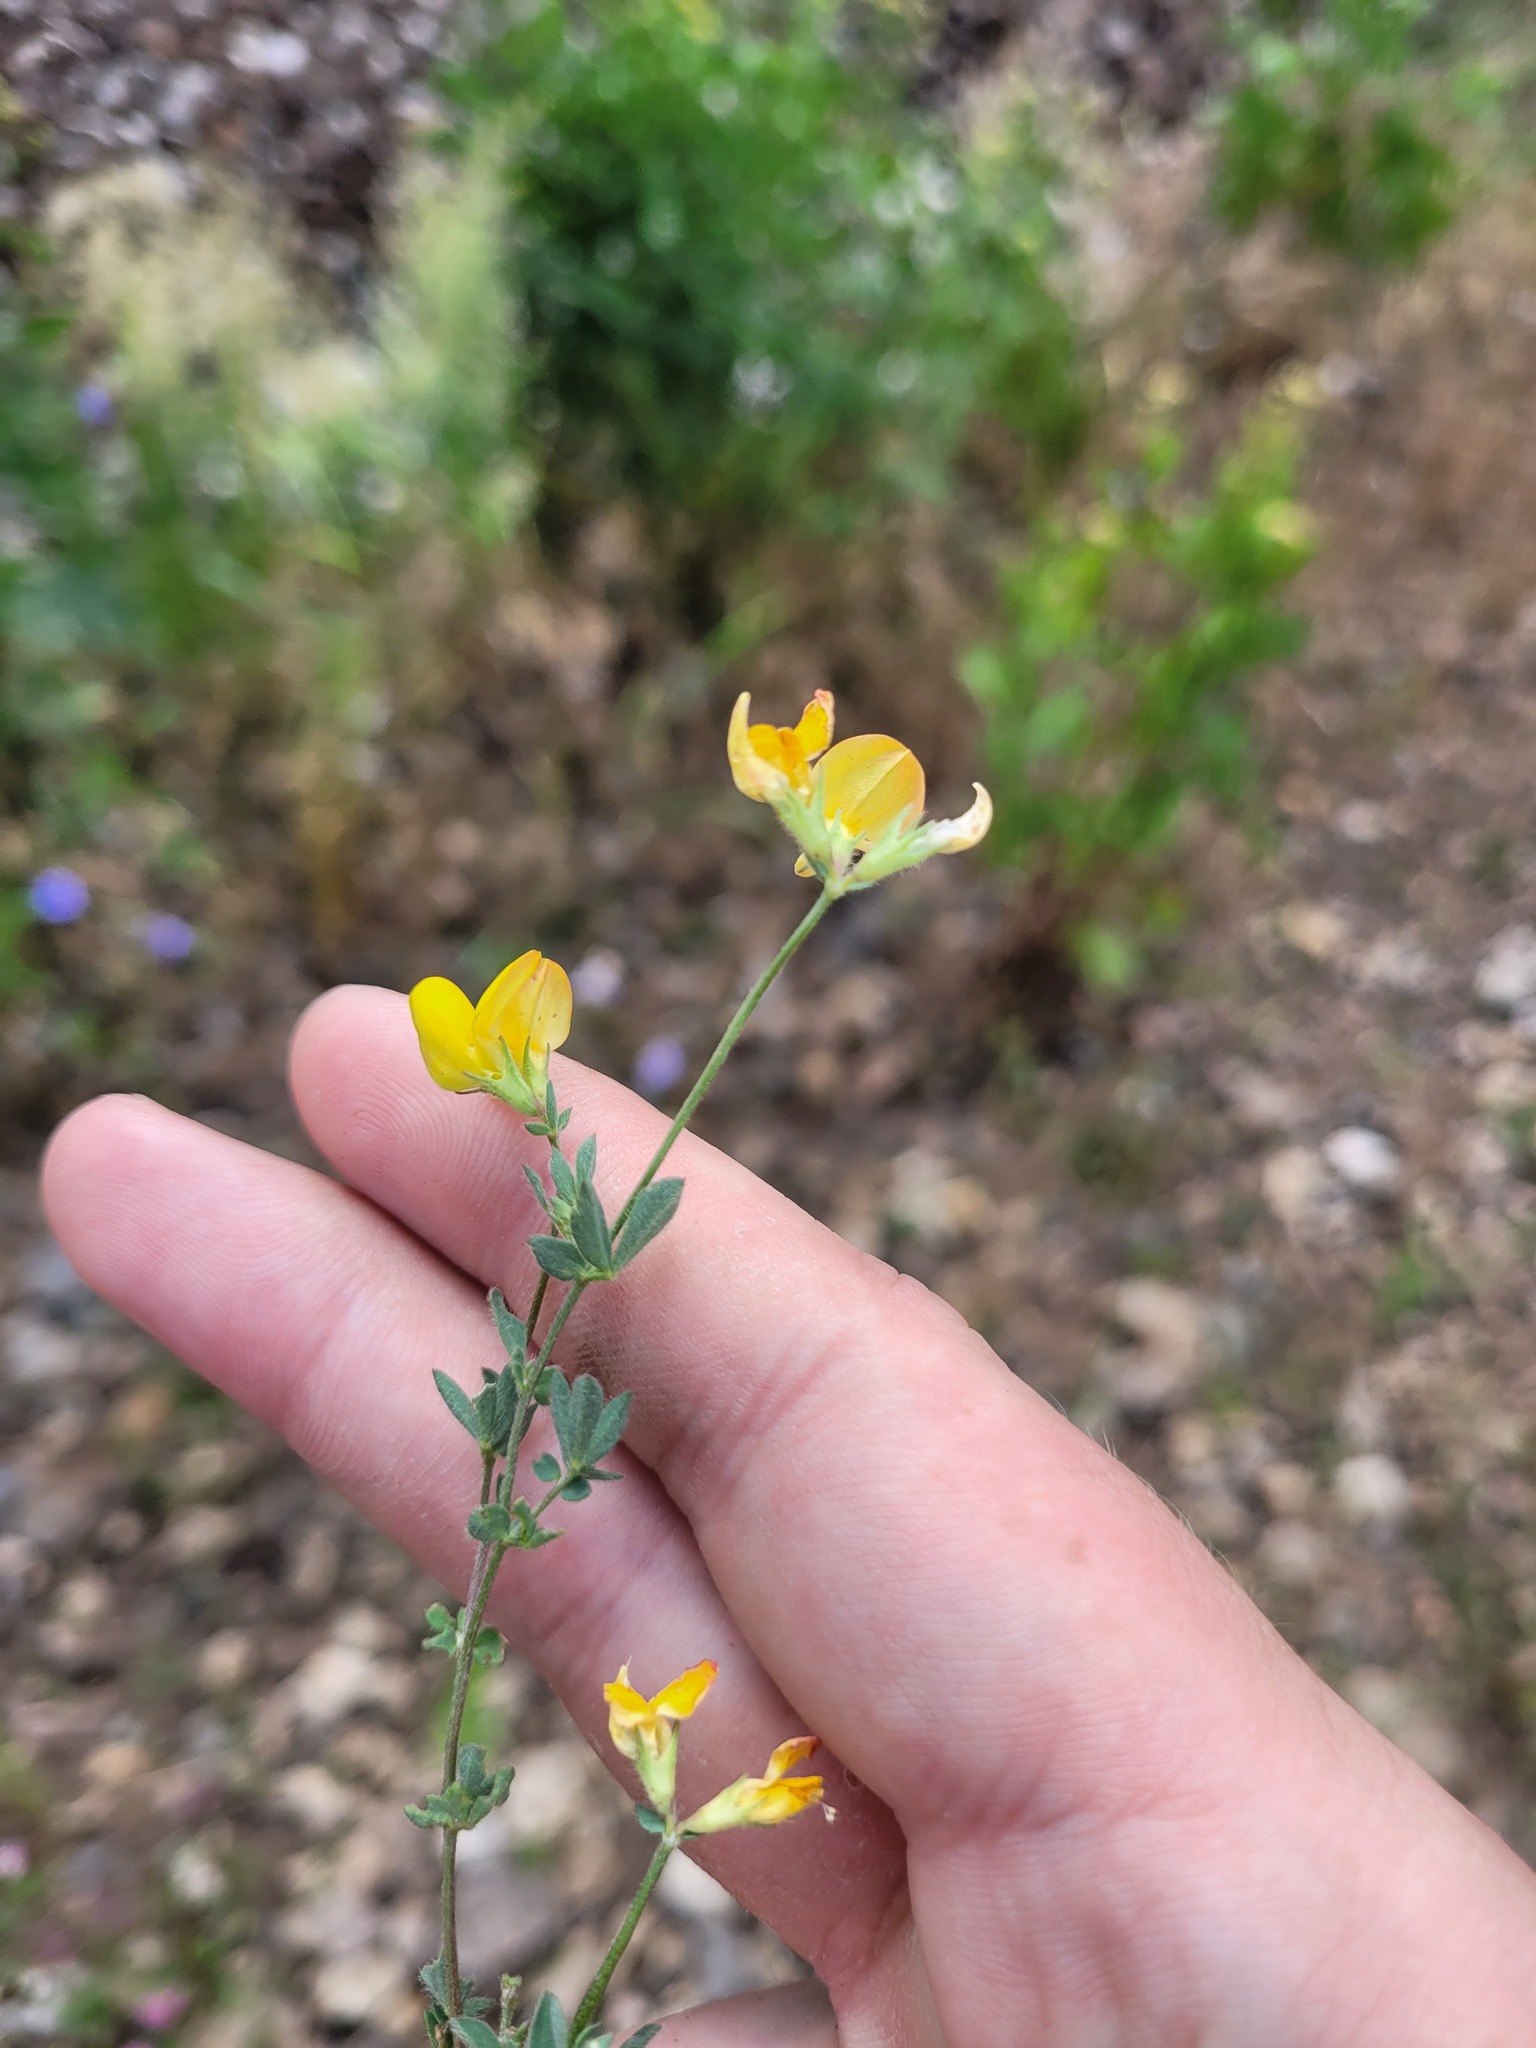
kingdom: Plantae
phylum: Tracheophyta
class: Magnoliopsida
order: Fabales
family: Fabaceae
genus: Lotus
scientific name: Lotus corniculatus
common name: Common bird's-foot-trefoil
